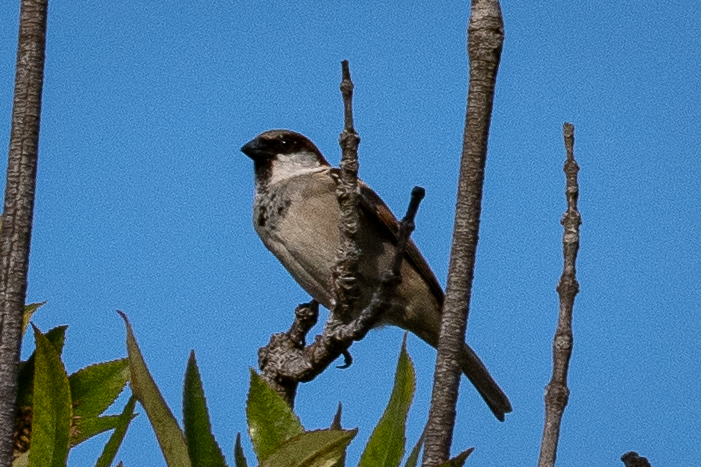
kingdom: Animalia
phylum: Chordata
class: Aves
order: Passeriformes
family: Passeridae
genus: Passer
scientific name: Passer domesticus
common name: House sparrow
